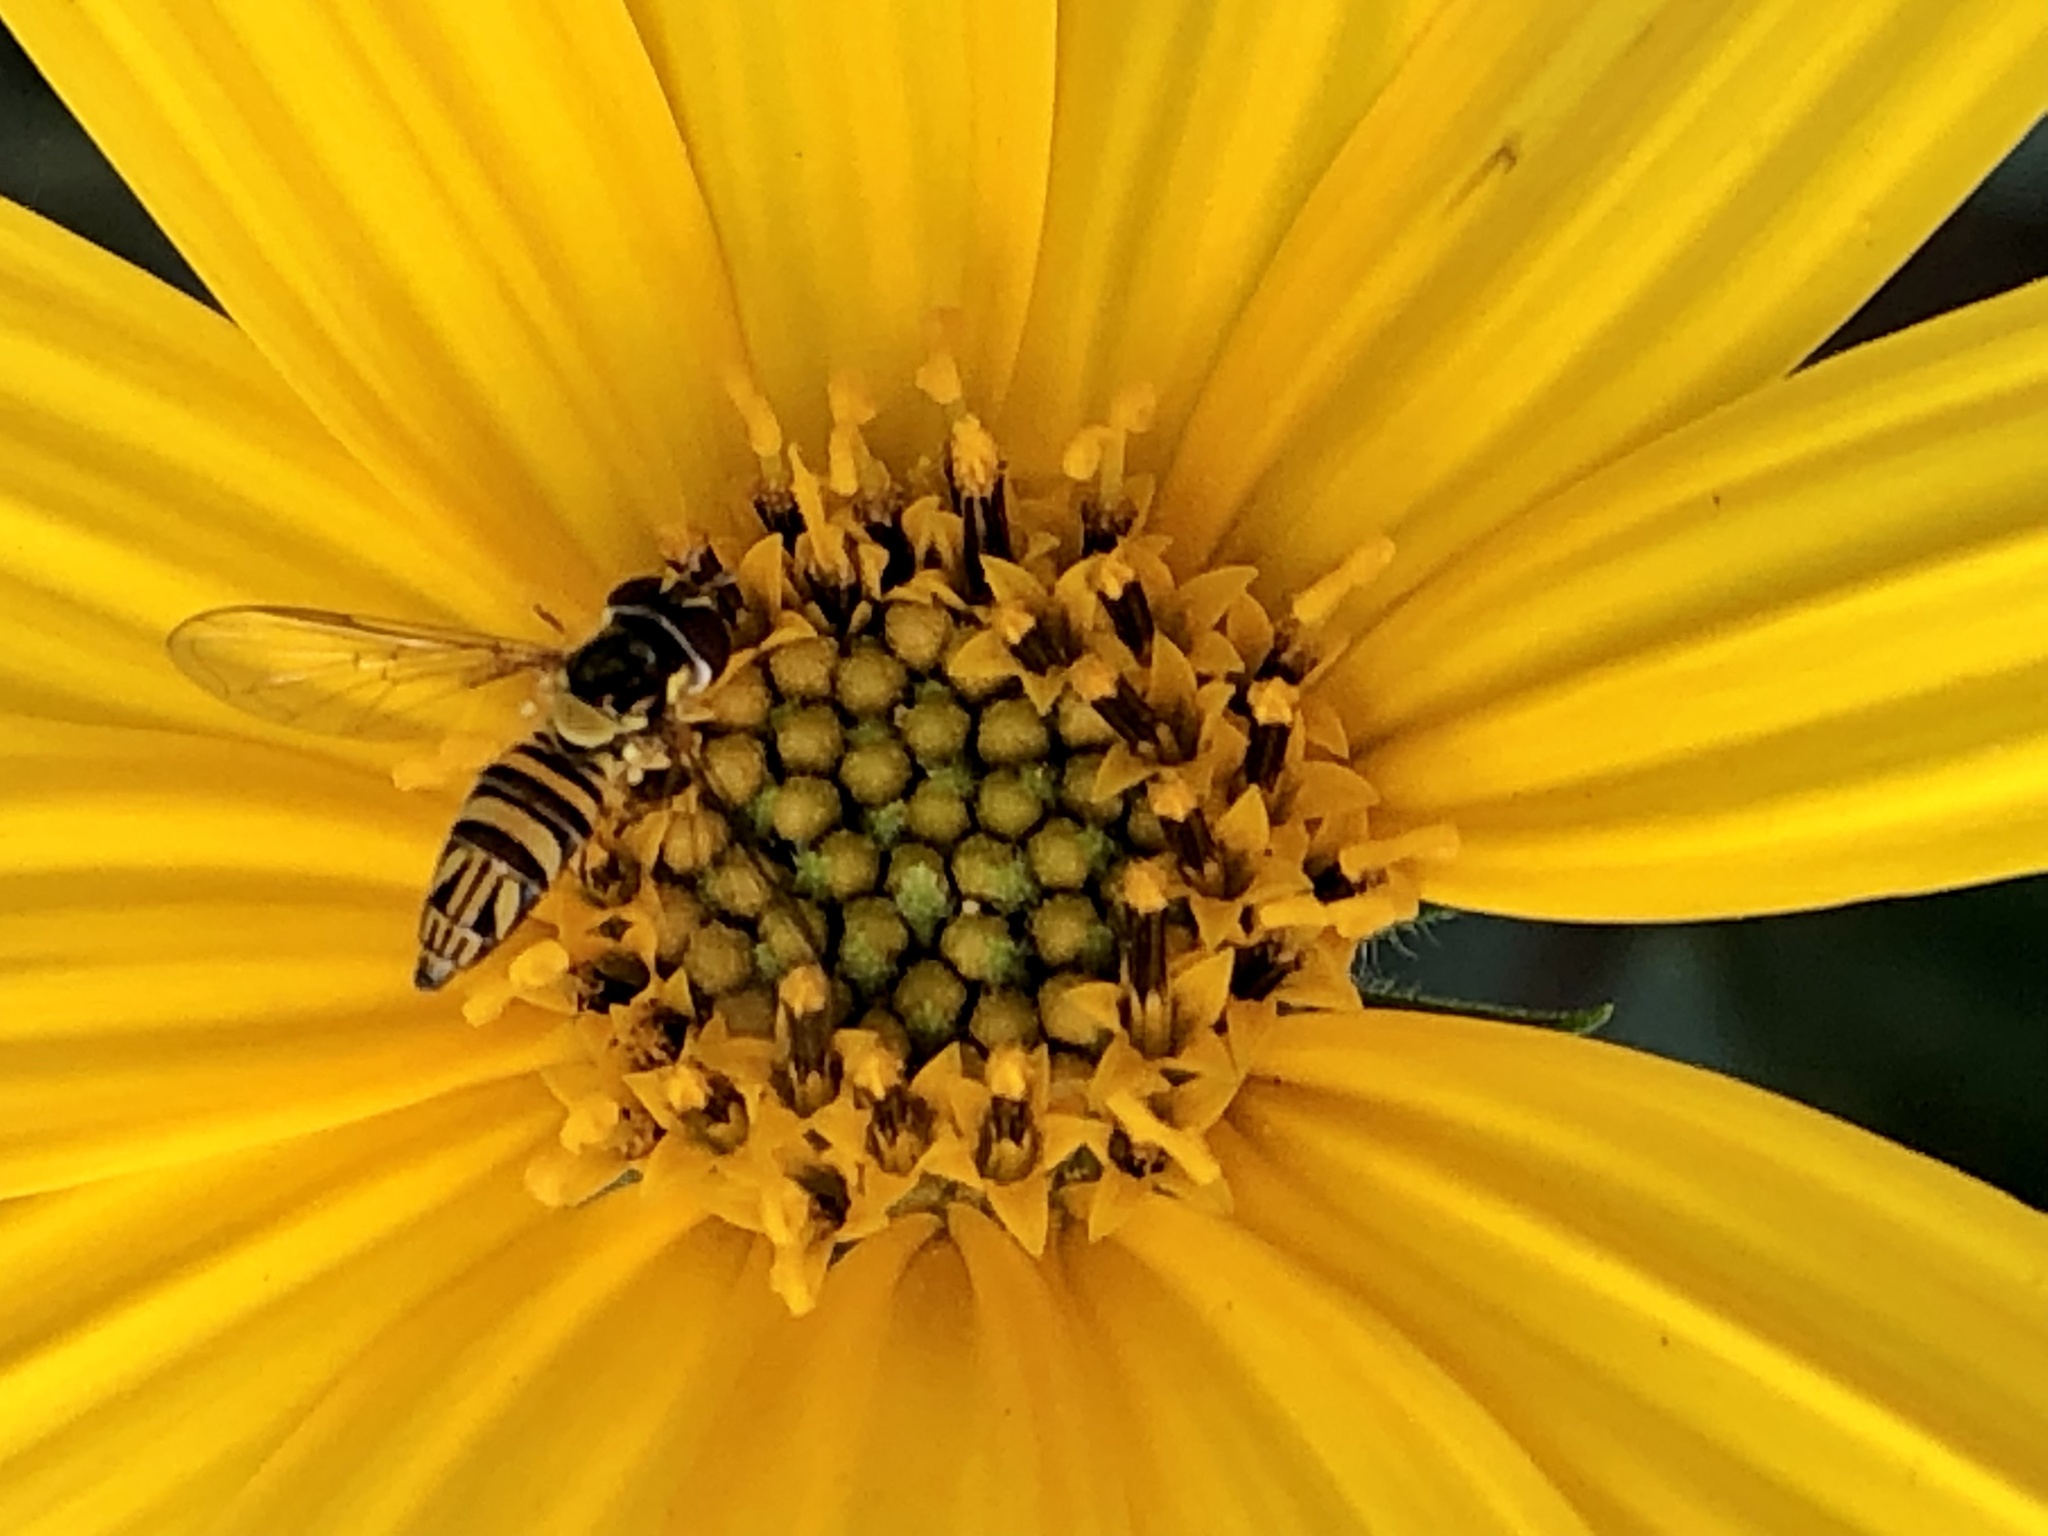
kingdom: Animalia
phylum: Arthropoda
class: Insecta
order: Diptera
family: Syrphidae
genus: Allograpta
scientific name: Allograpta obliqua
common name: Common oblique syrphid
